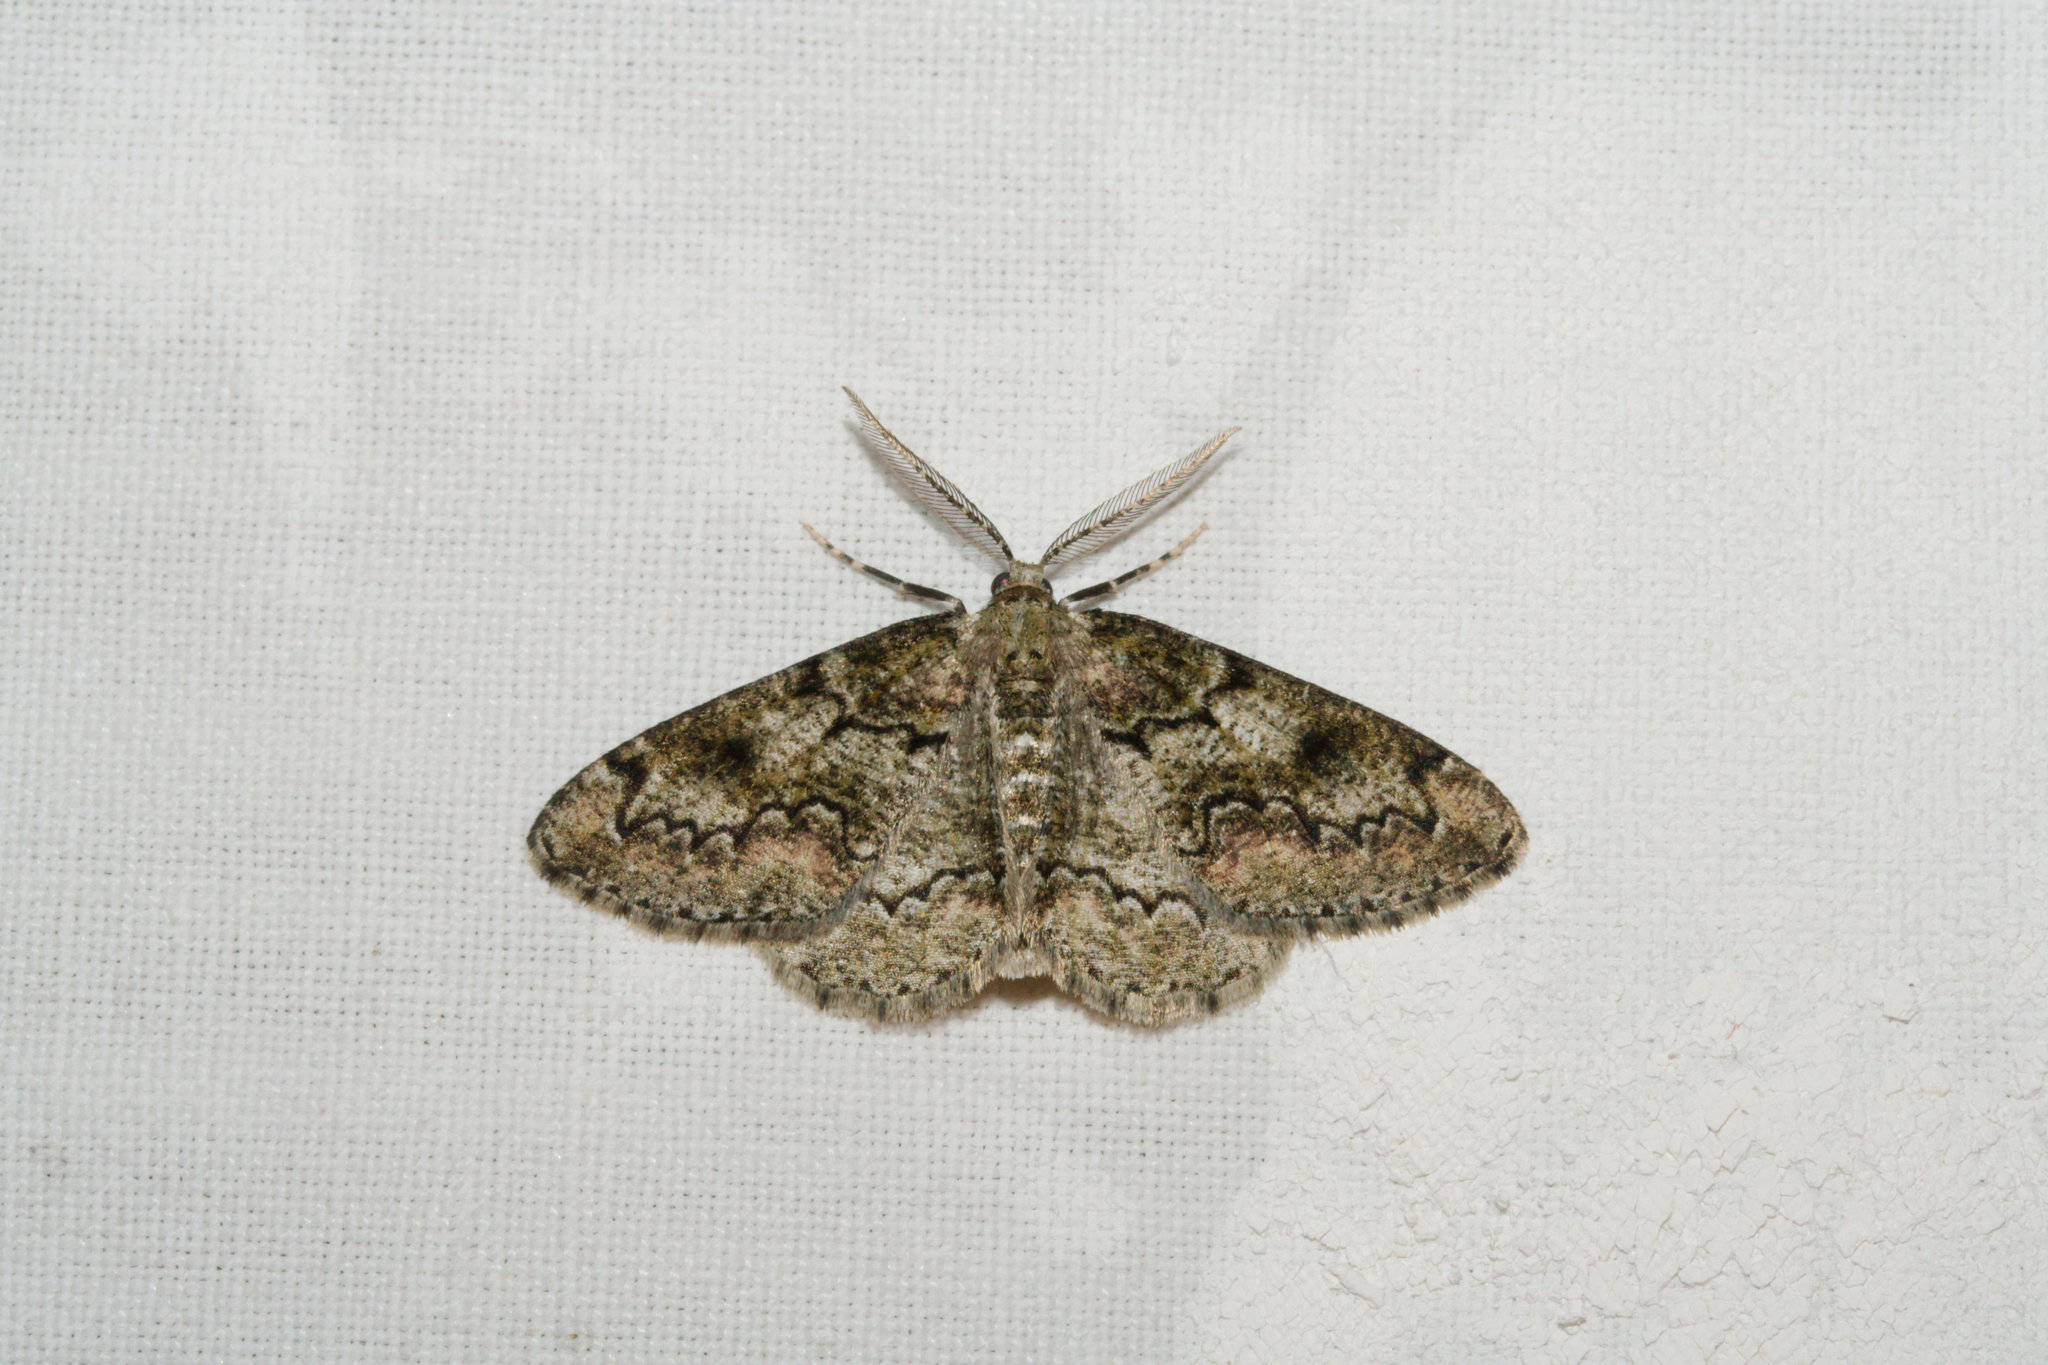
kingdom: Animalia
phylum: Arthropoda
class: Insecta
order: Lepidoptera
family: Geometridae
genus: Cleorodes
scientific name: Cleorodes lichenaria
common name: Brussels lace
